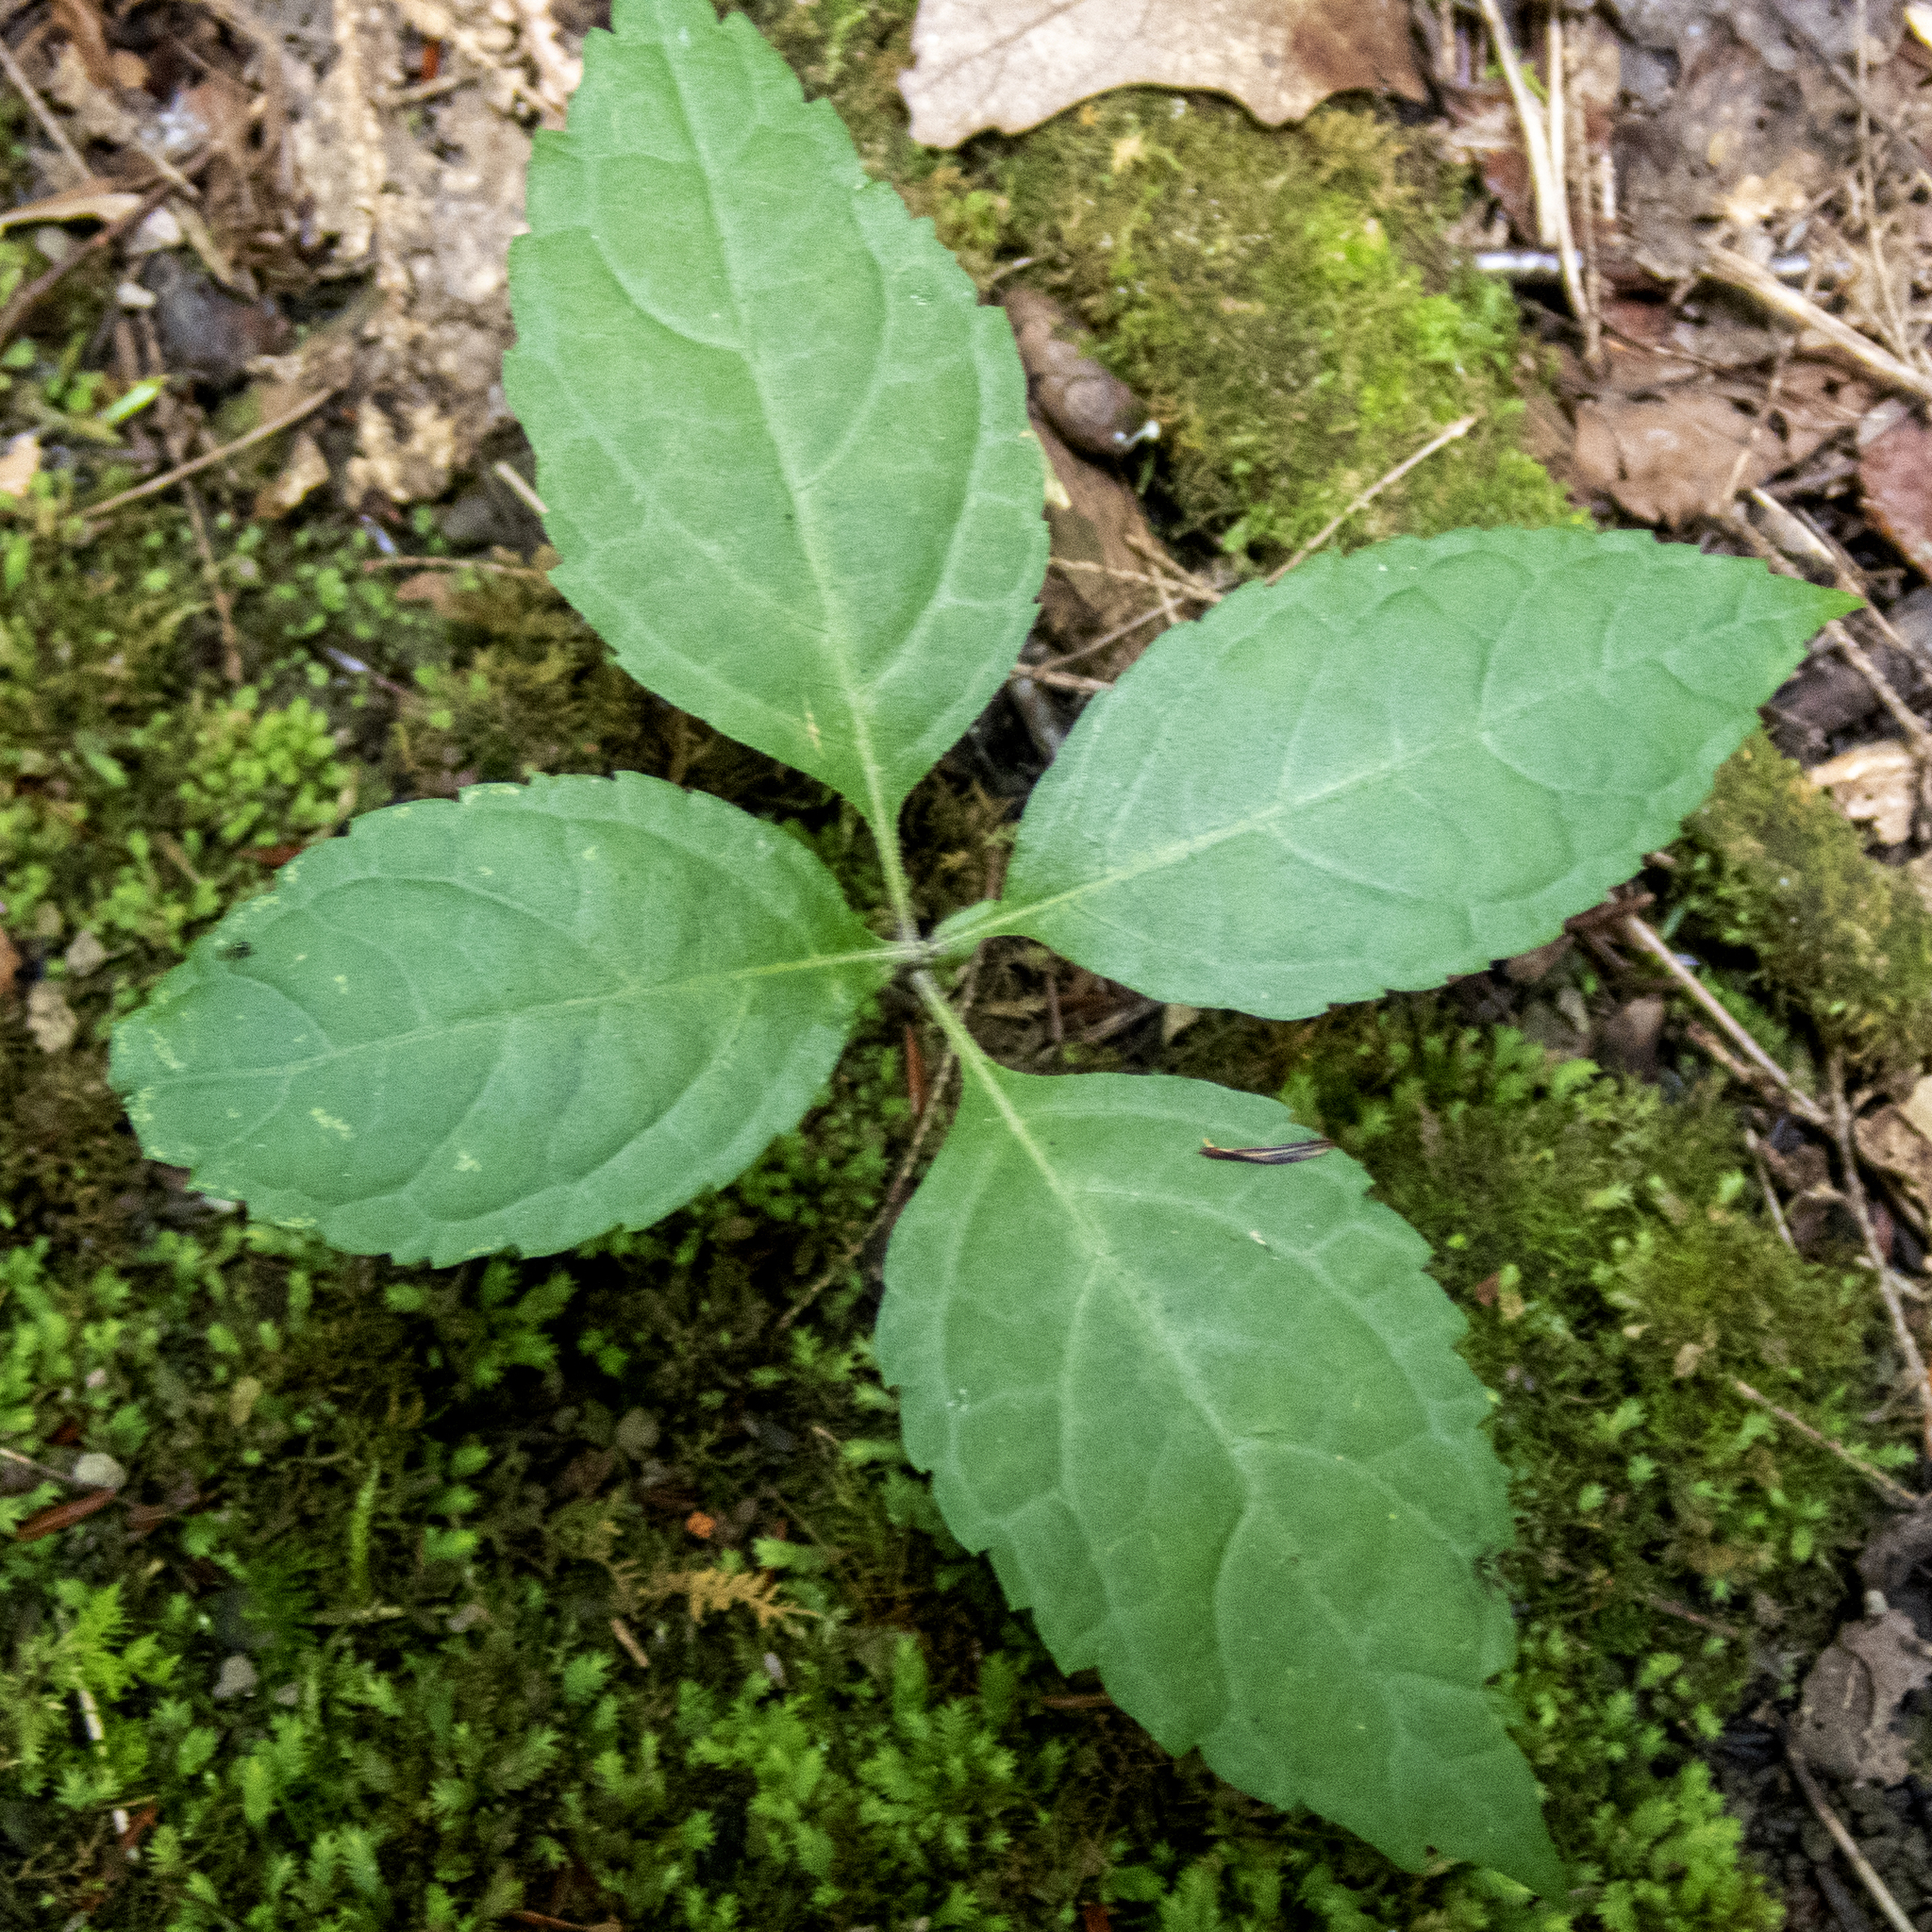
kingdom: Plantae
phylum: Tracheophyta
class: Magnoliopsida
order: Lamiales
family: Lamiaceae
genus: Collinsonia
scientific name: Collinsonia canadensis
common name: Northern horsebalm
